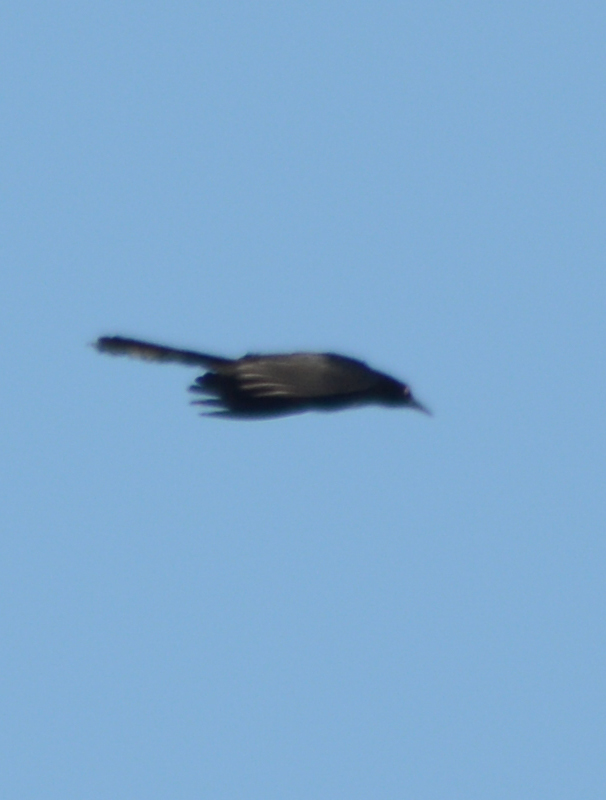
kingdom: Animalia
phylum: Chordata
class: Aves
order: Passeriformes
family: Icteridae
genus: Quiscalus
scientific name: Quiscalus mexicanus
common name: Great-tailed grackle
